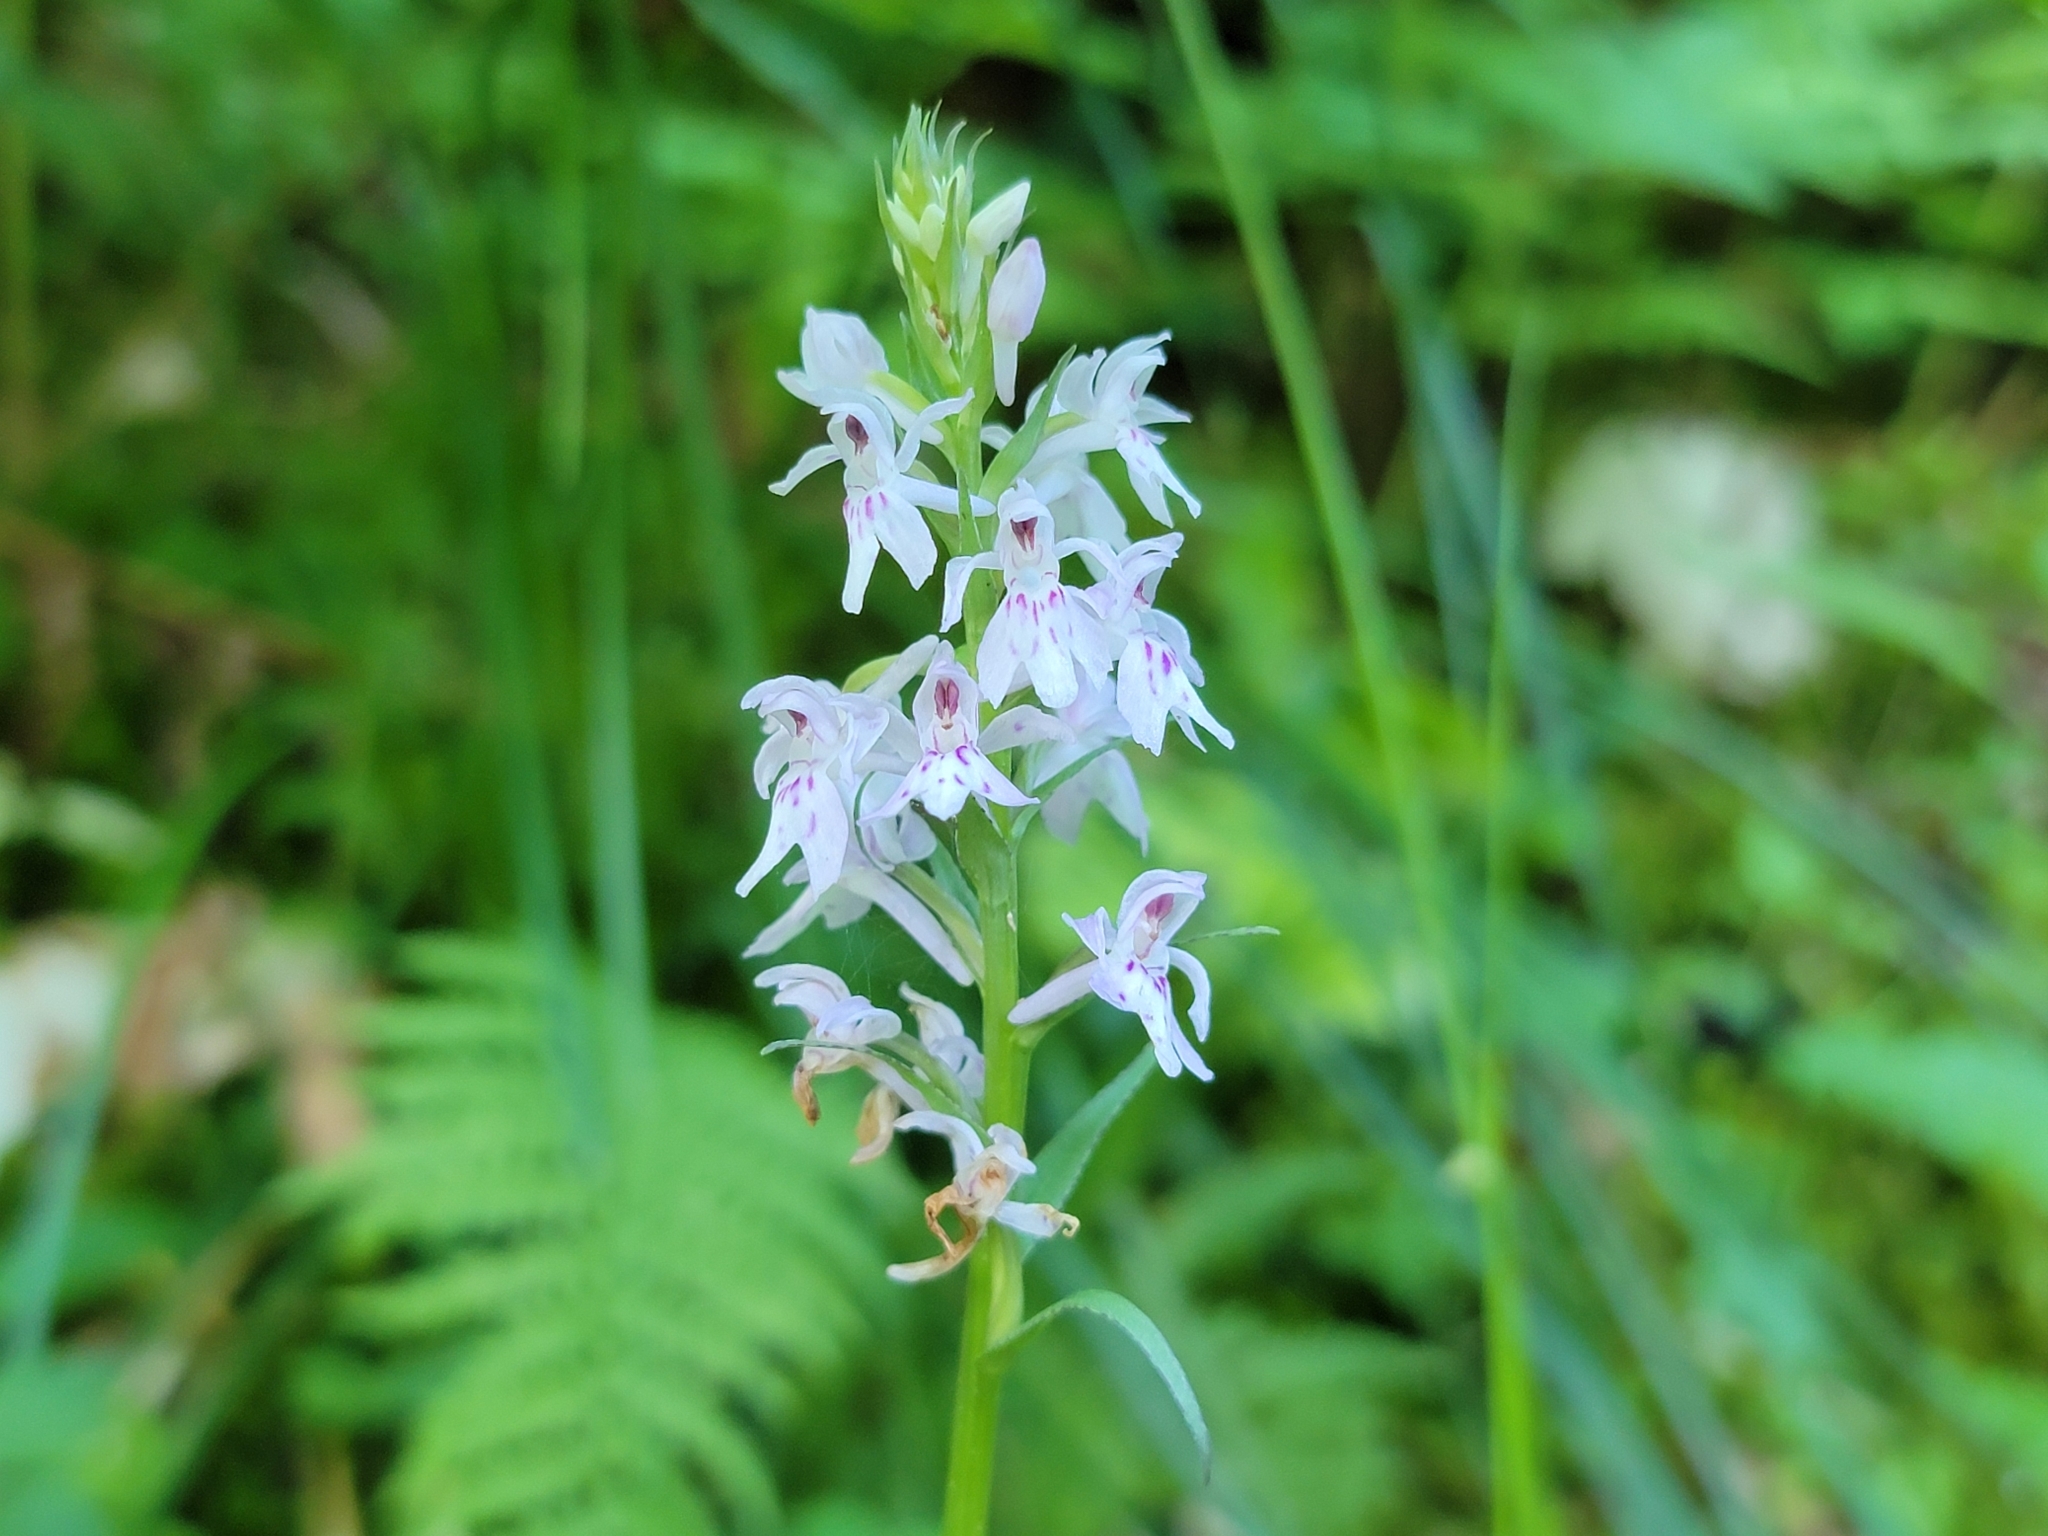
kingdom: Plantae
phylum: Tracheophyta
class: Liliopsida
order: Asparagales
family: Orchidaceae
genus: Dactylorhiza
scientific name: Dactylorhiza maculata
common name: Heath spotted-orchid
